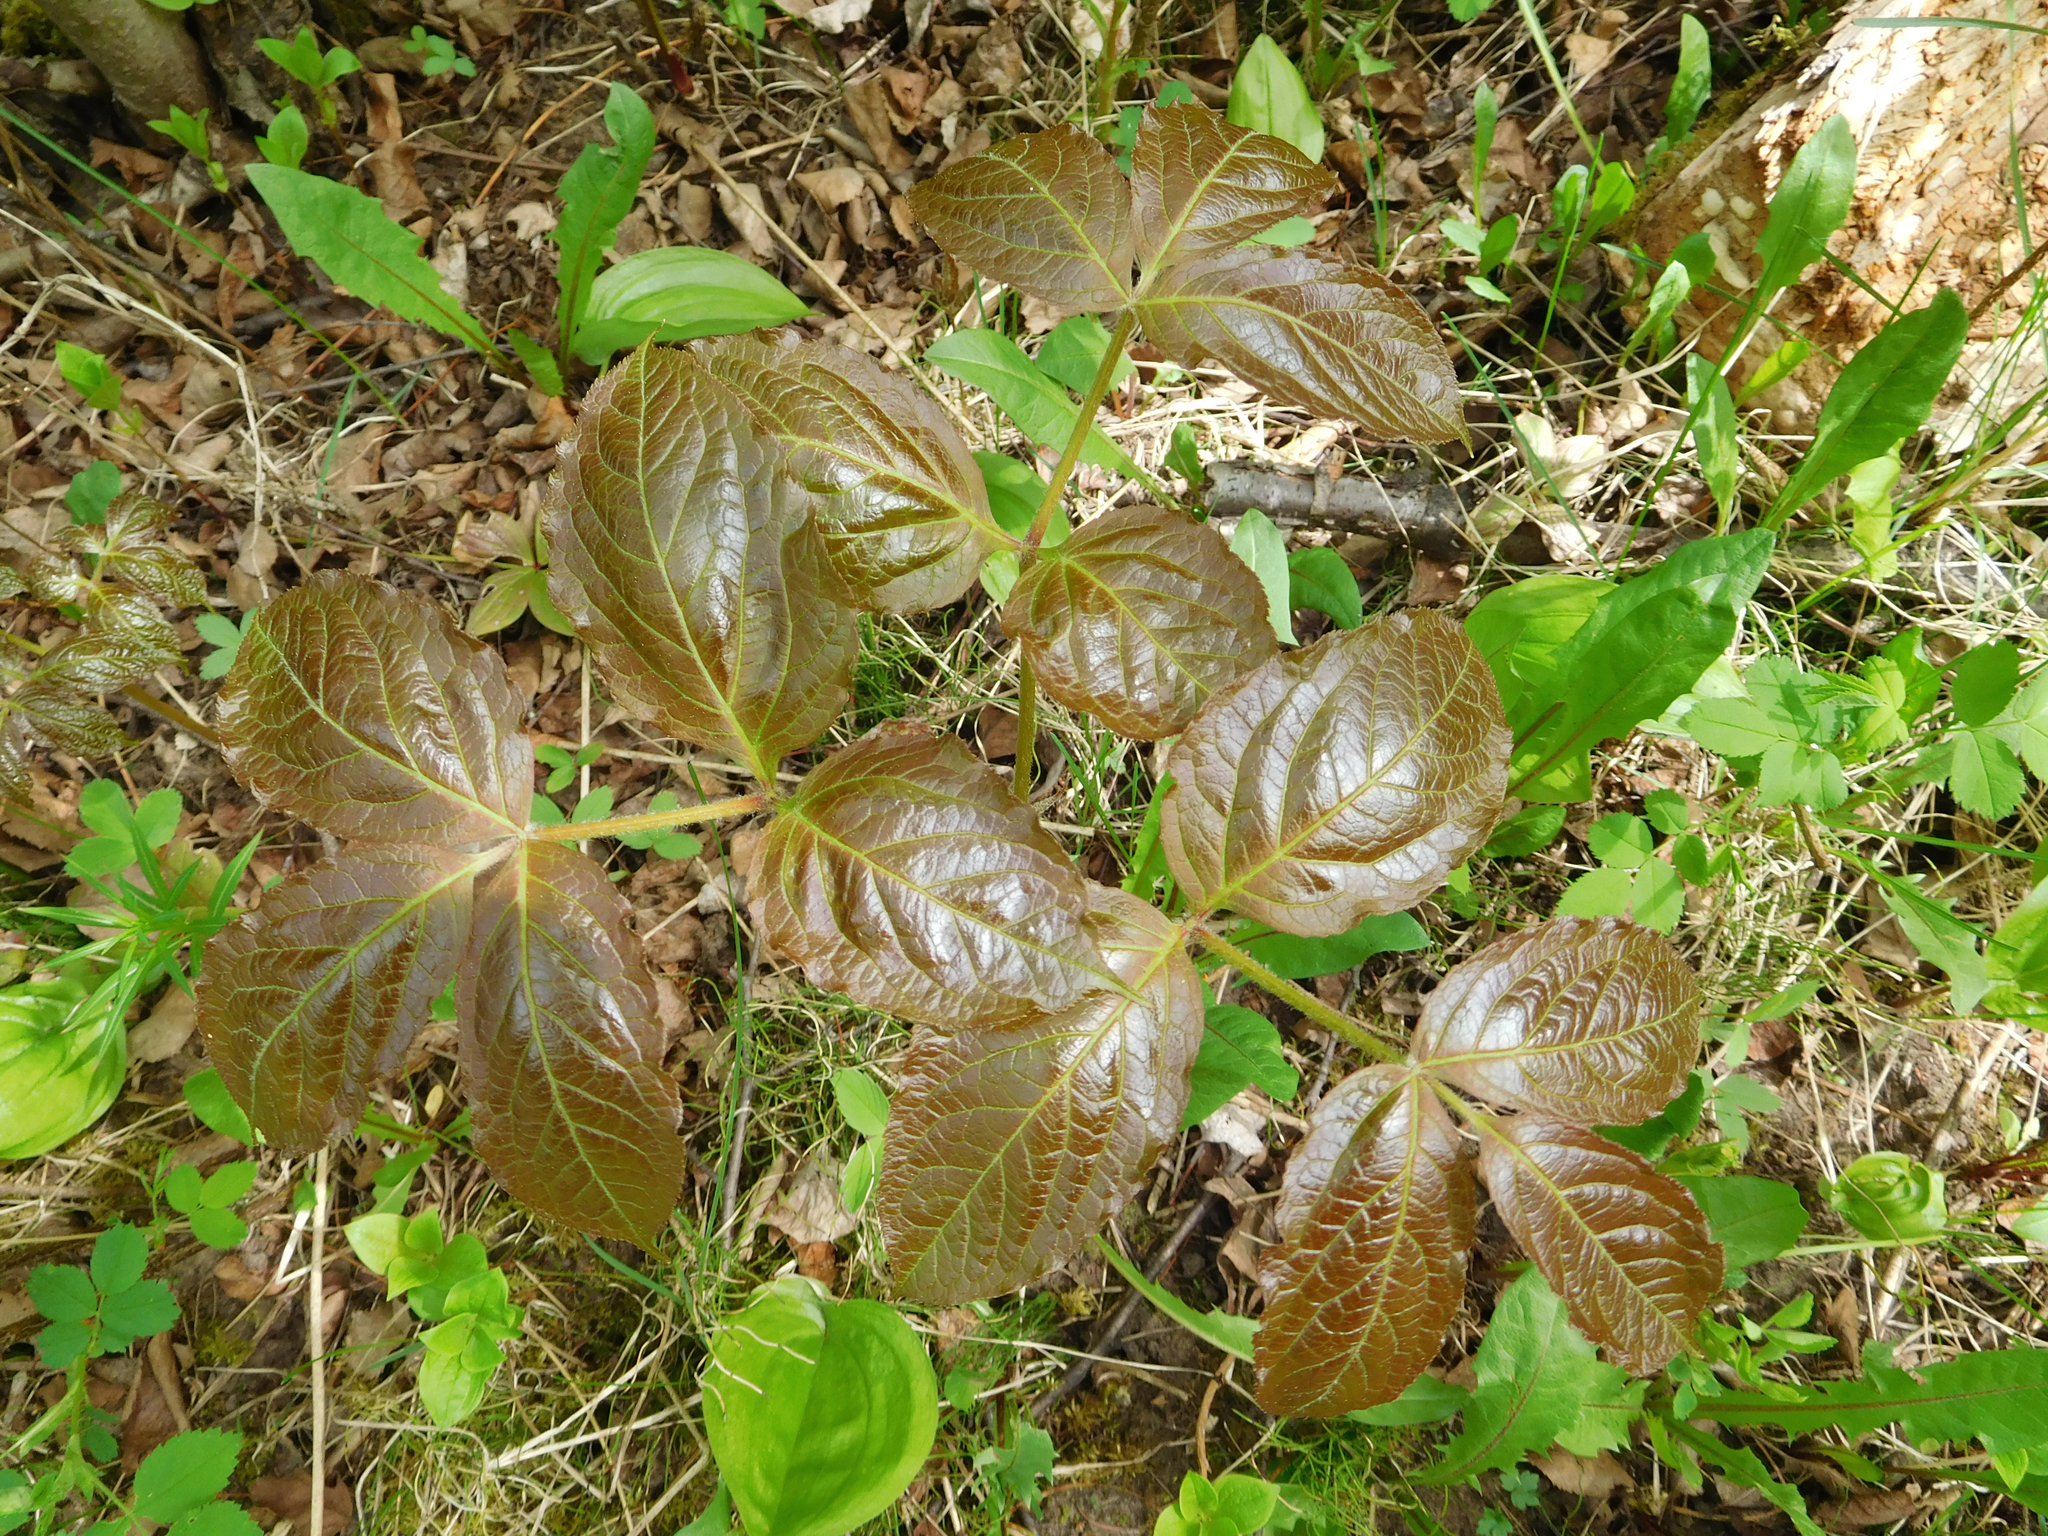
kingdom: Plantae
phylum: Tracheophyta
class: Magnoliopsida
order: Apiales
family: Araliaceae
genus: Aralia
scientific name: Aralia nudicaulis
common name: Wild sarsaparilla
